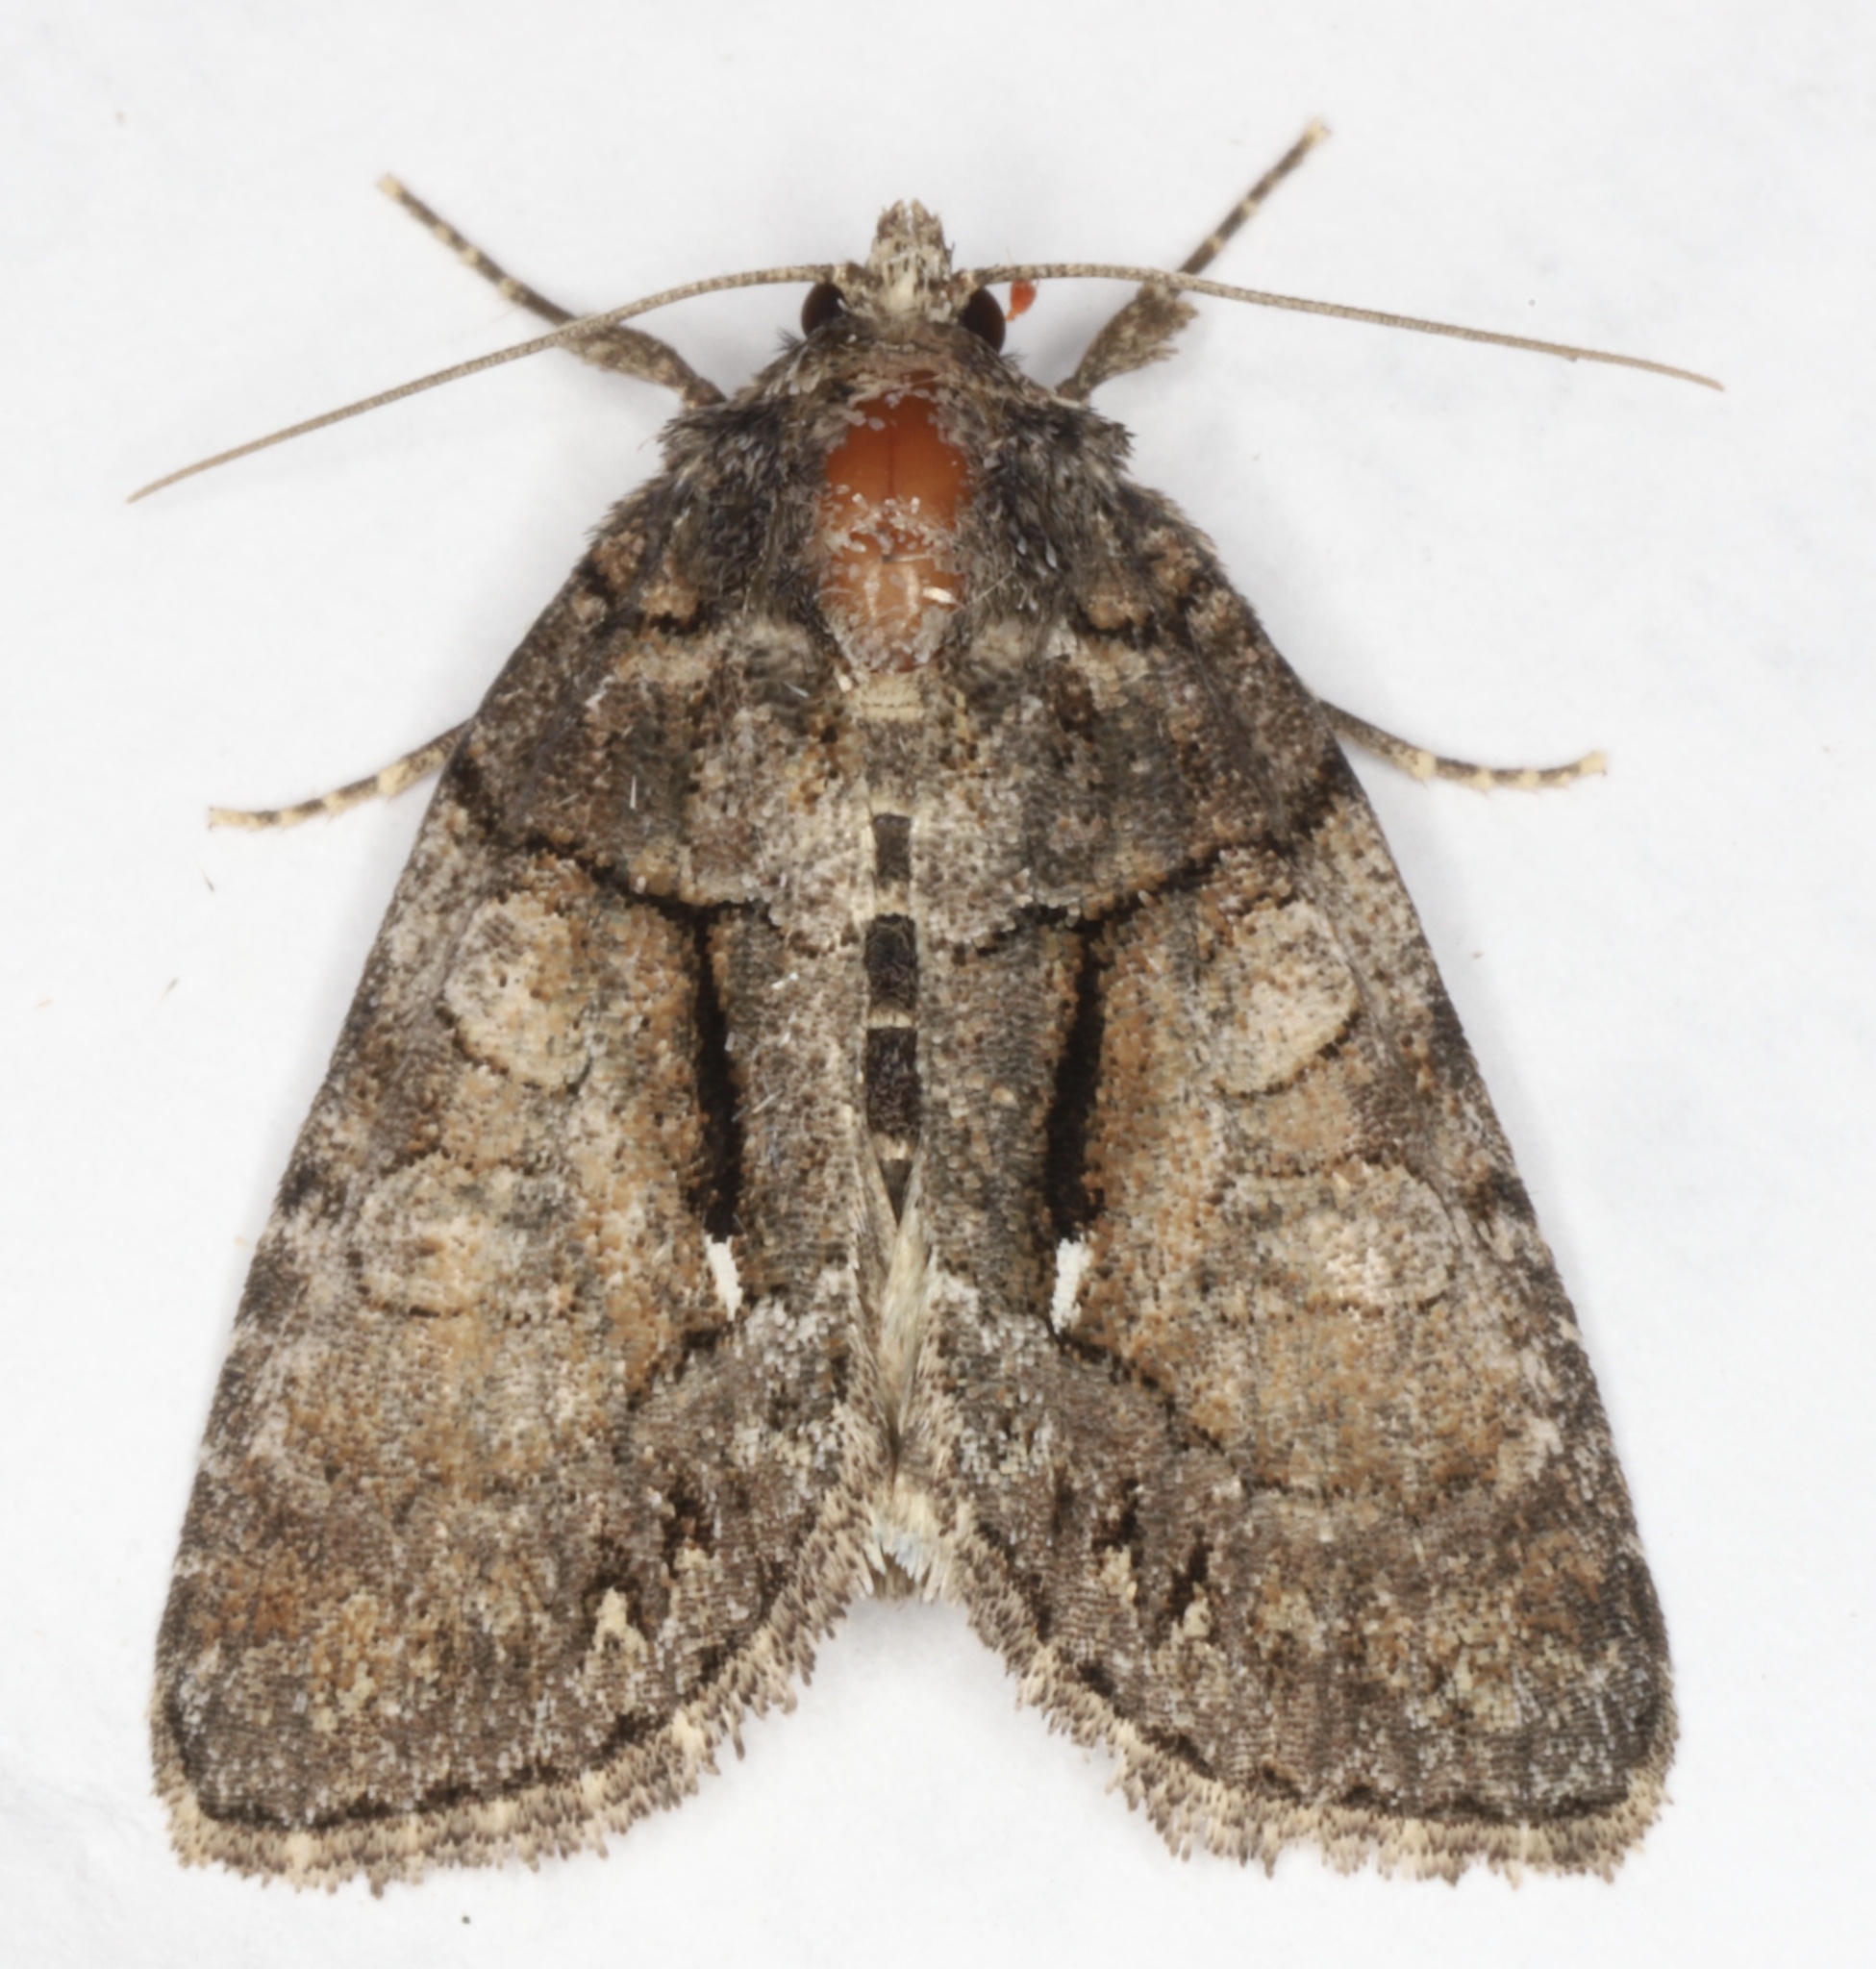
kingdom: Animalia
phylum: Arthropoda
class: Insecta
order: Lepidoptera
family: Noctuidae
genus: Chytonix
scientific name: Chytonix palliatricula
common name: Cloaked marvel
